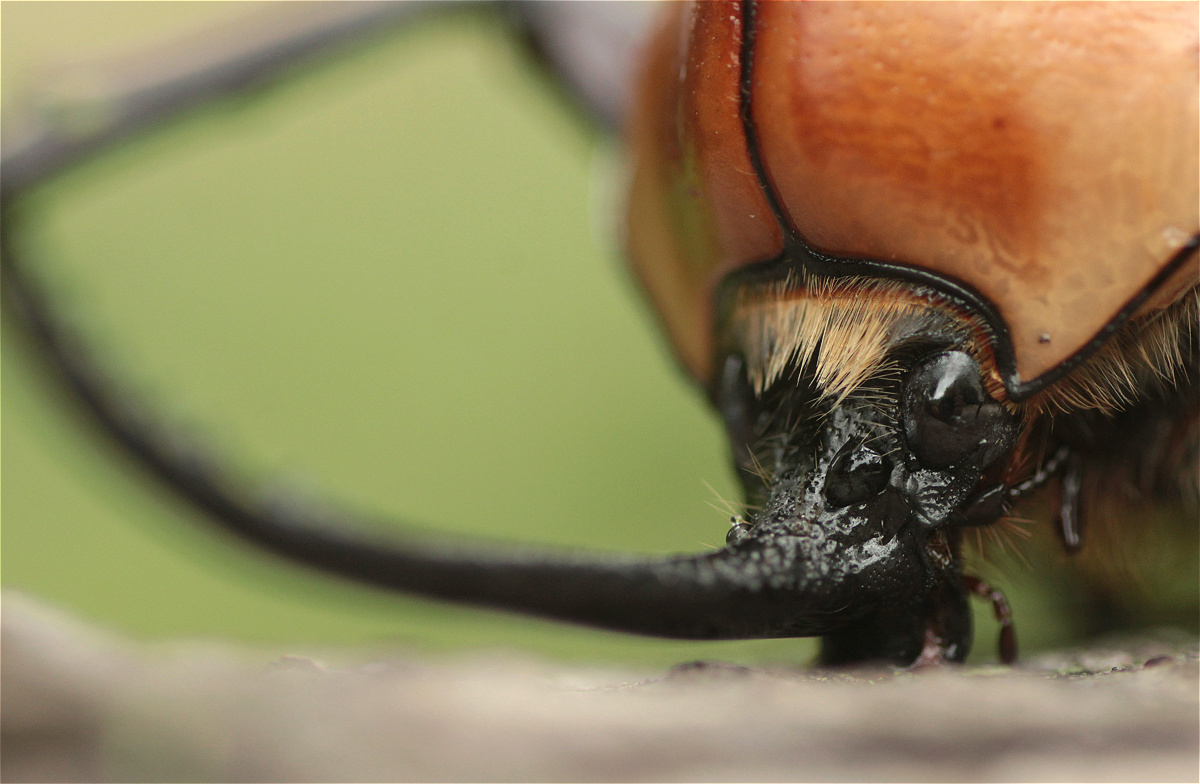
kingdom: Animalia
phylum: Arthropoda
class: Insecta
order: Coleoptera
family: Scarabaeidae
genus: Golofa
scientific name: Golofa aegeon
